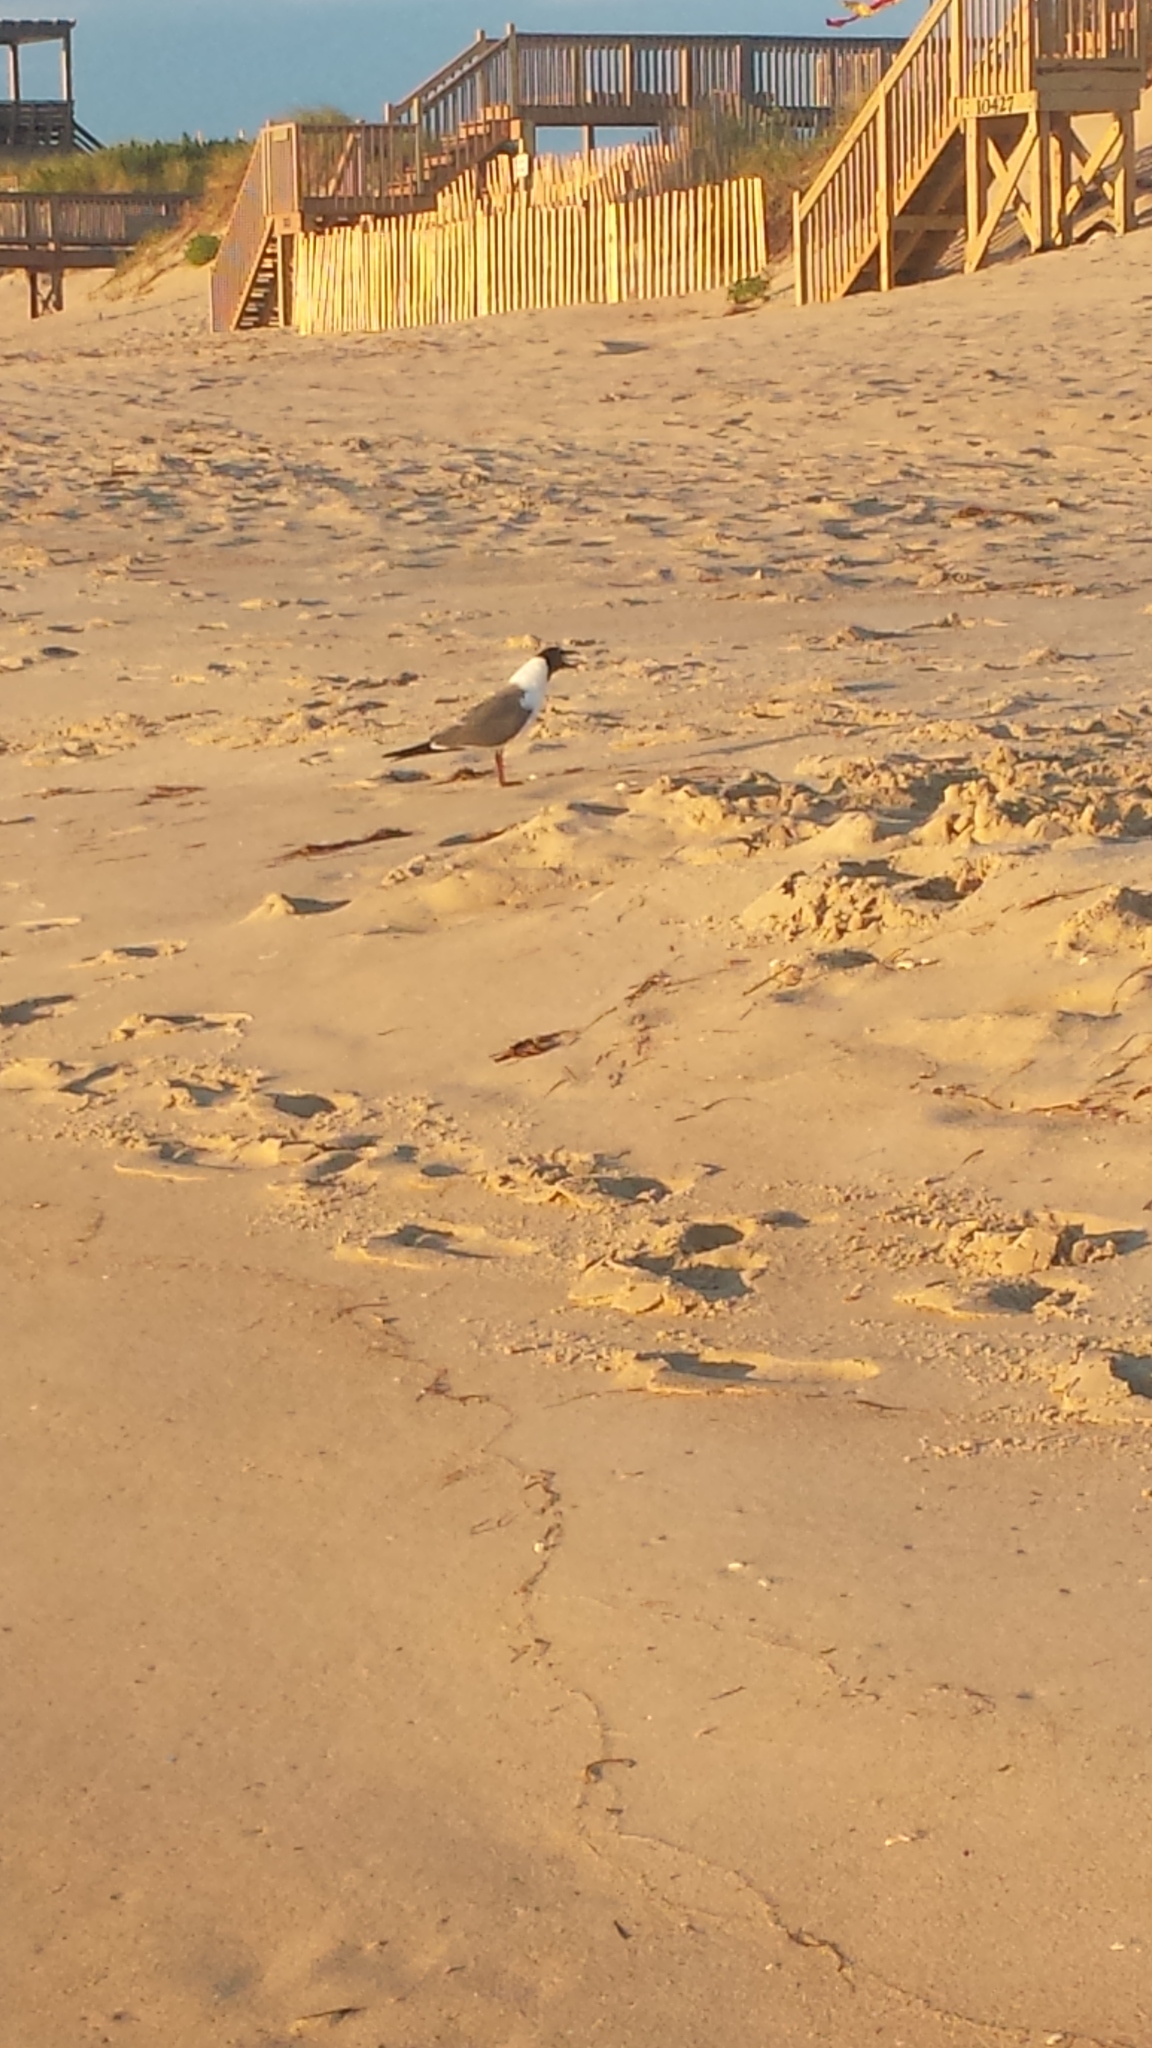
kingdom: Animalia
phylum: Chordata
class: Aves
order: Charadriiformes
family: Laridae
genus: Leucophaeus
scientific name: Leucophaeus atricilla
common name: Laughing gull
